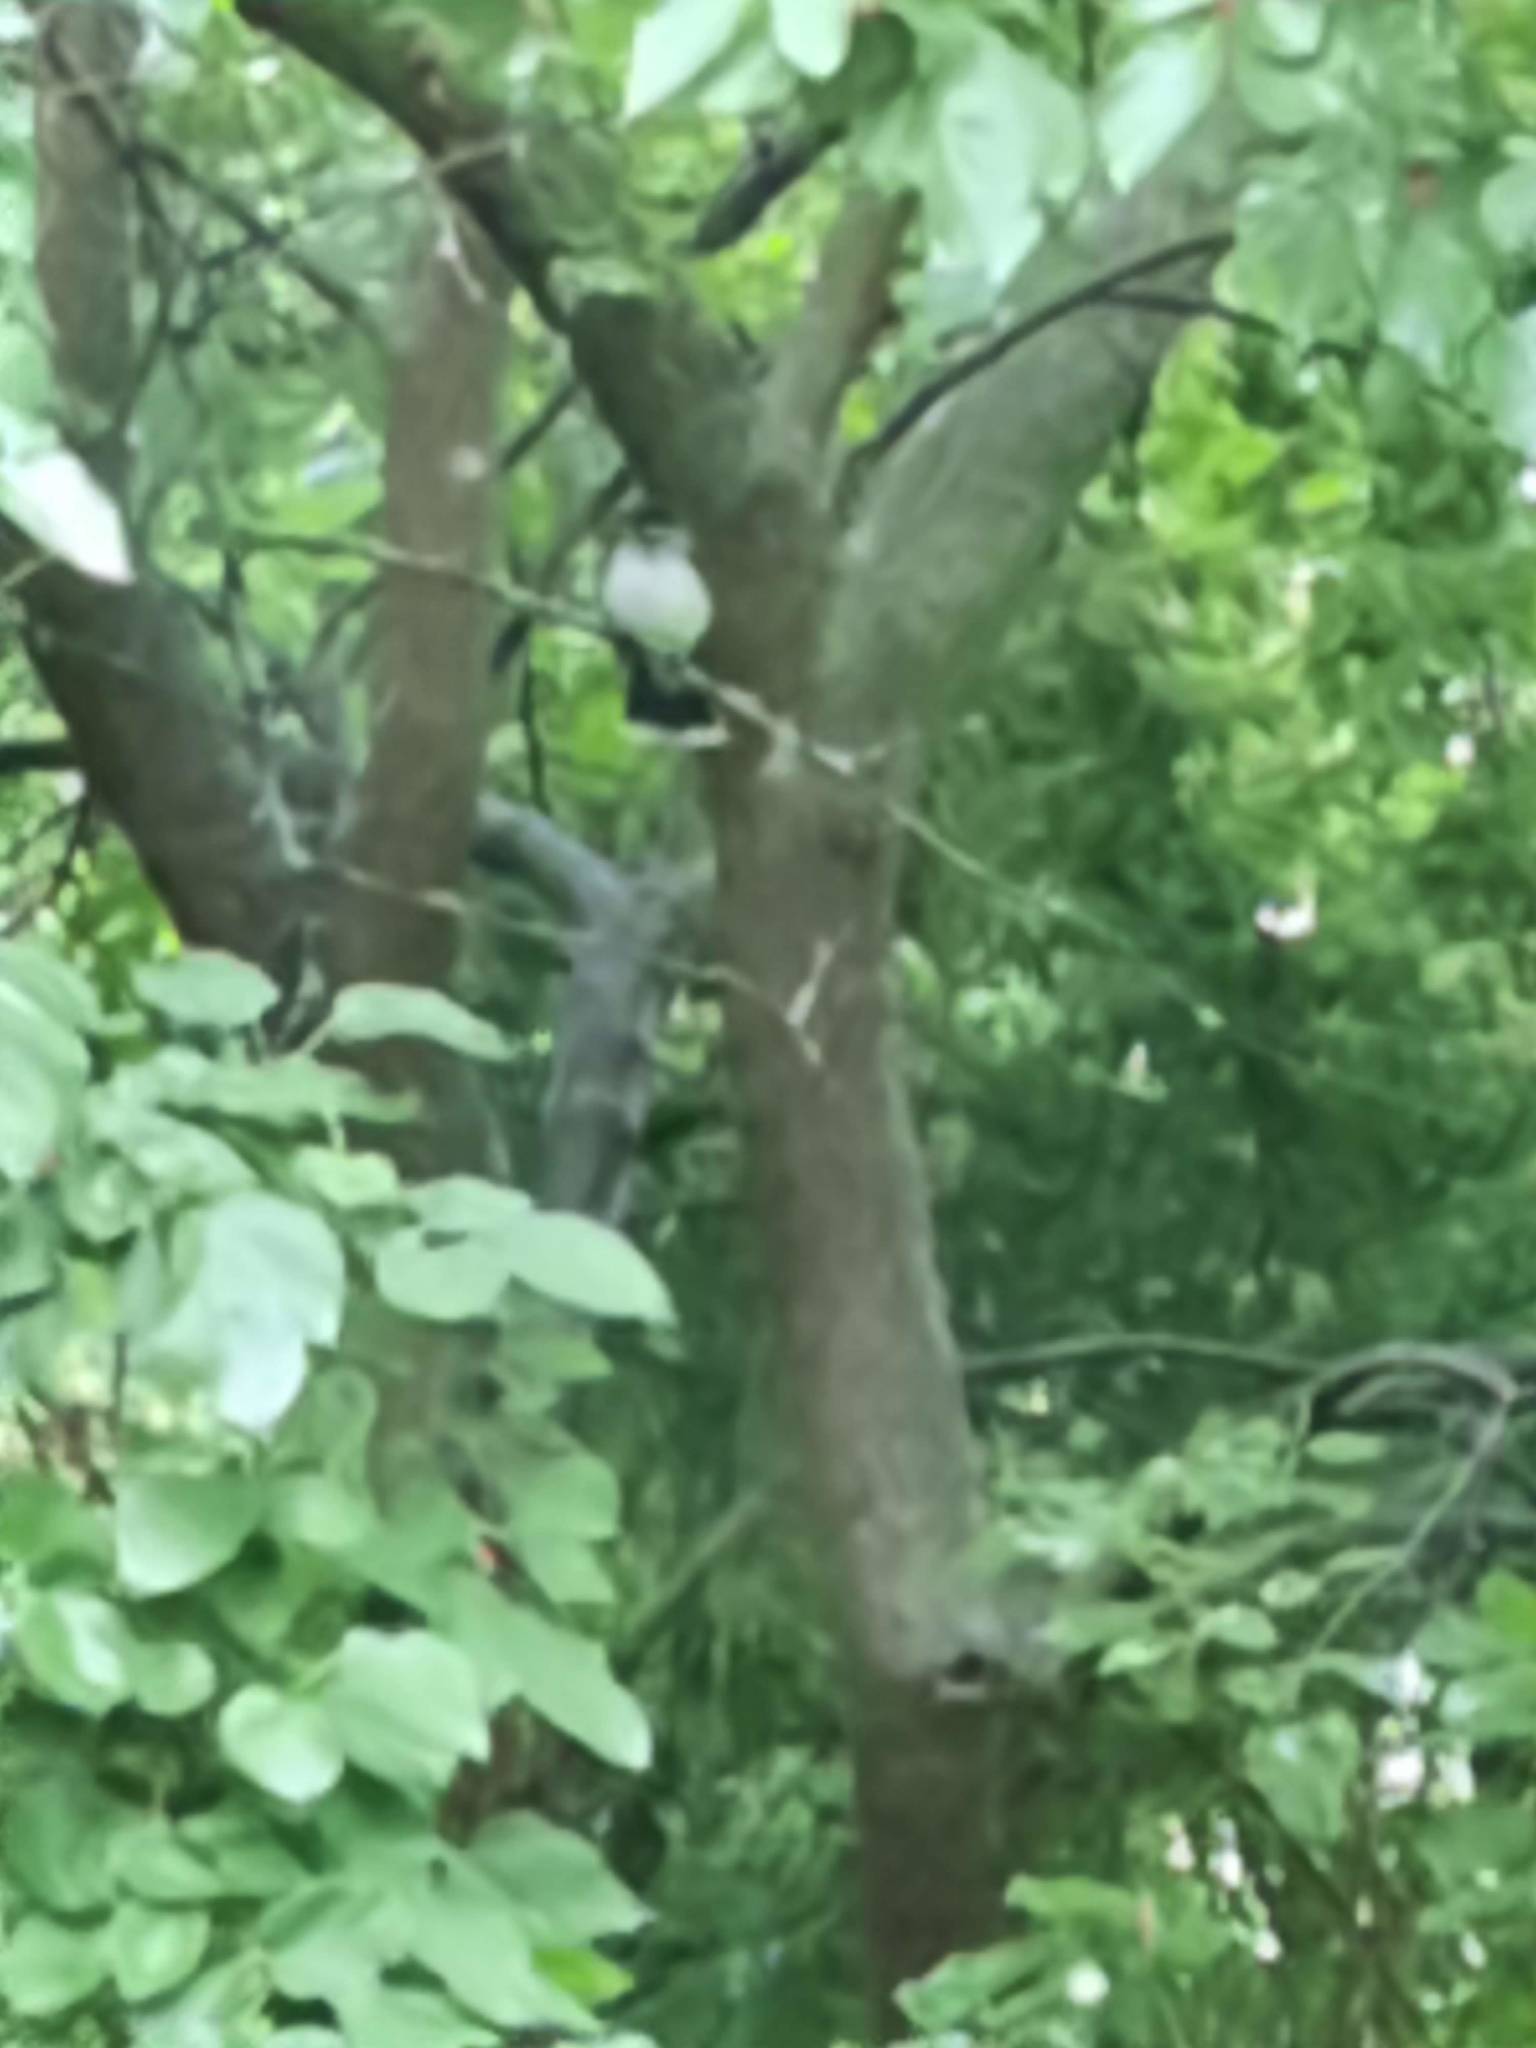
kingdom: Animalia
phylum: Chordata
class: Aves
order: Passeriformes
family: Tyrannidae
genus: Tyrannus
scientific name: Tyrannus tyrannus
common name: Eastern kingbird
